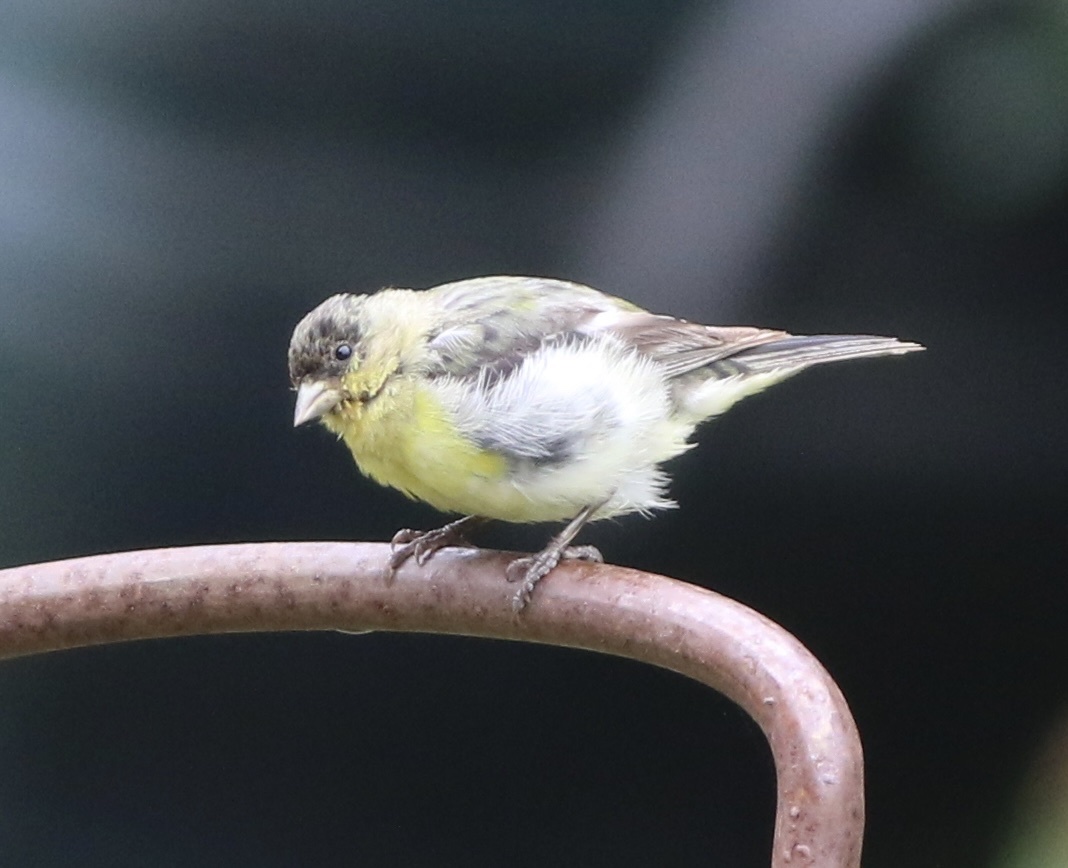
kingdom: Animalia
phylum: Chordata
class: Aves
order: Passeriformes
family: Fringillidae
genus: Spinus
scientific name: Spinus psaltria
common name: Lesser goldfinch
